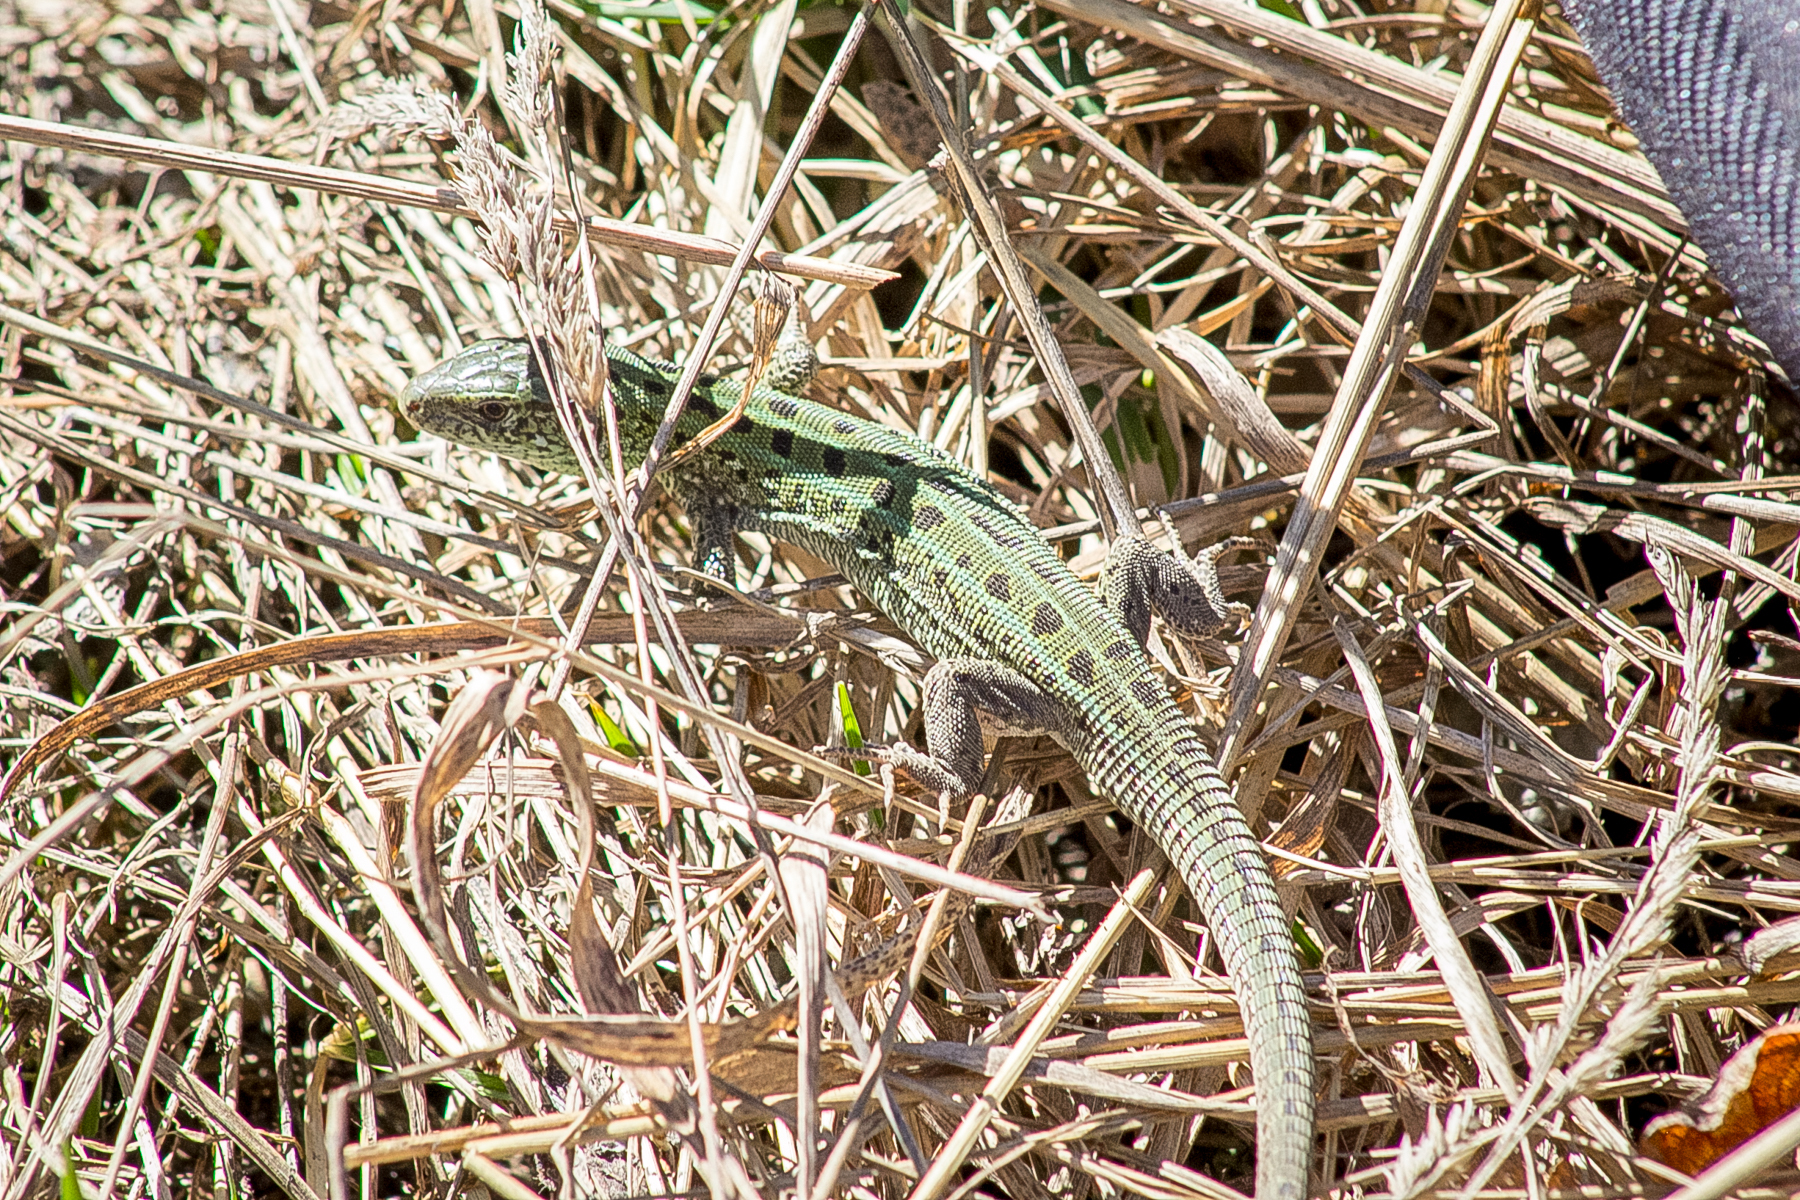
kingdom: Animalia
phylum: Chordata
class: Squamata
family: Lacertidae
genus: Lacerta
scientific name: Lacerta agilis
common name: Sand lizard
